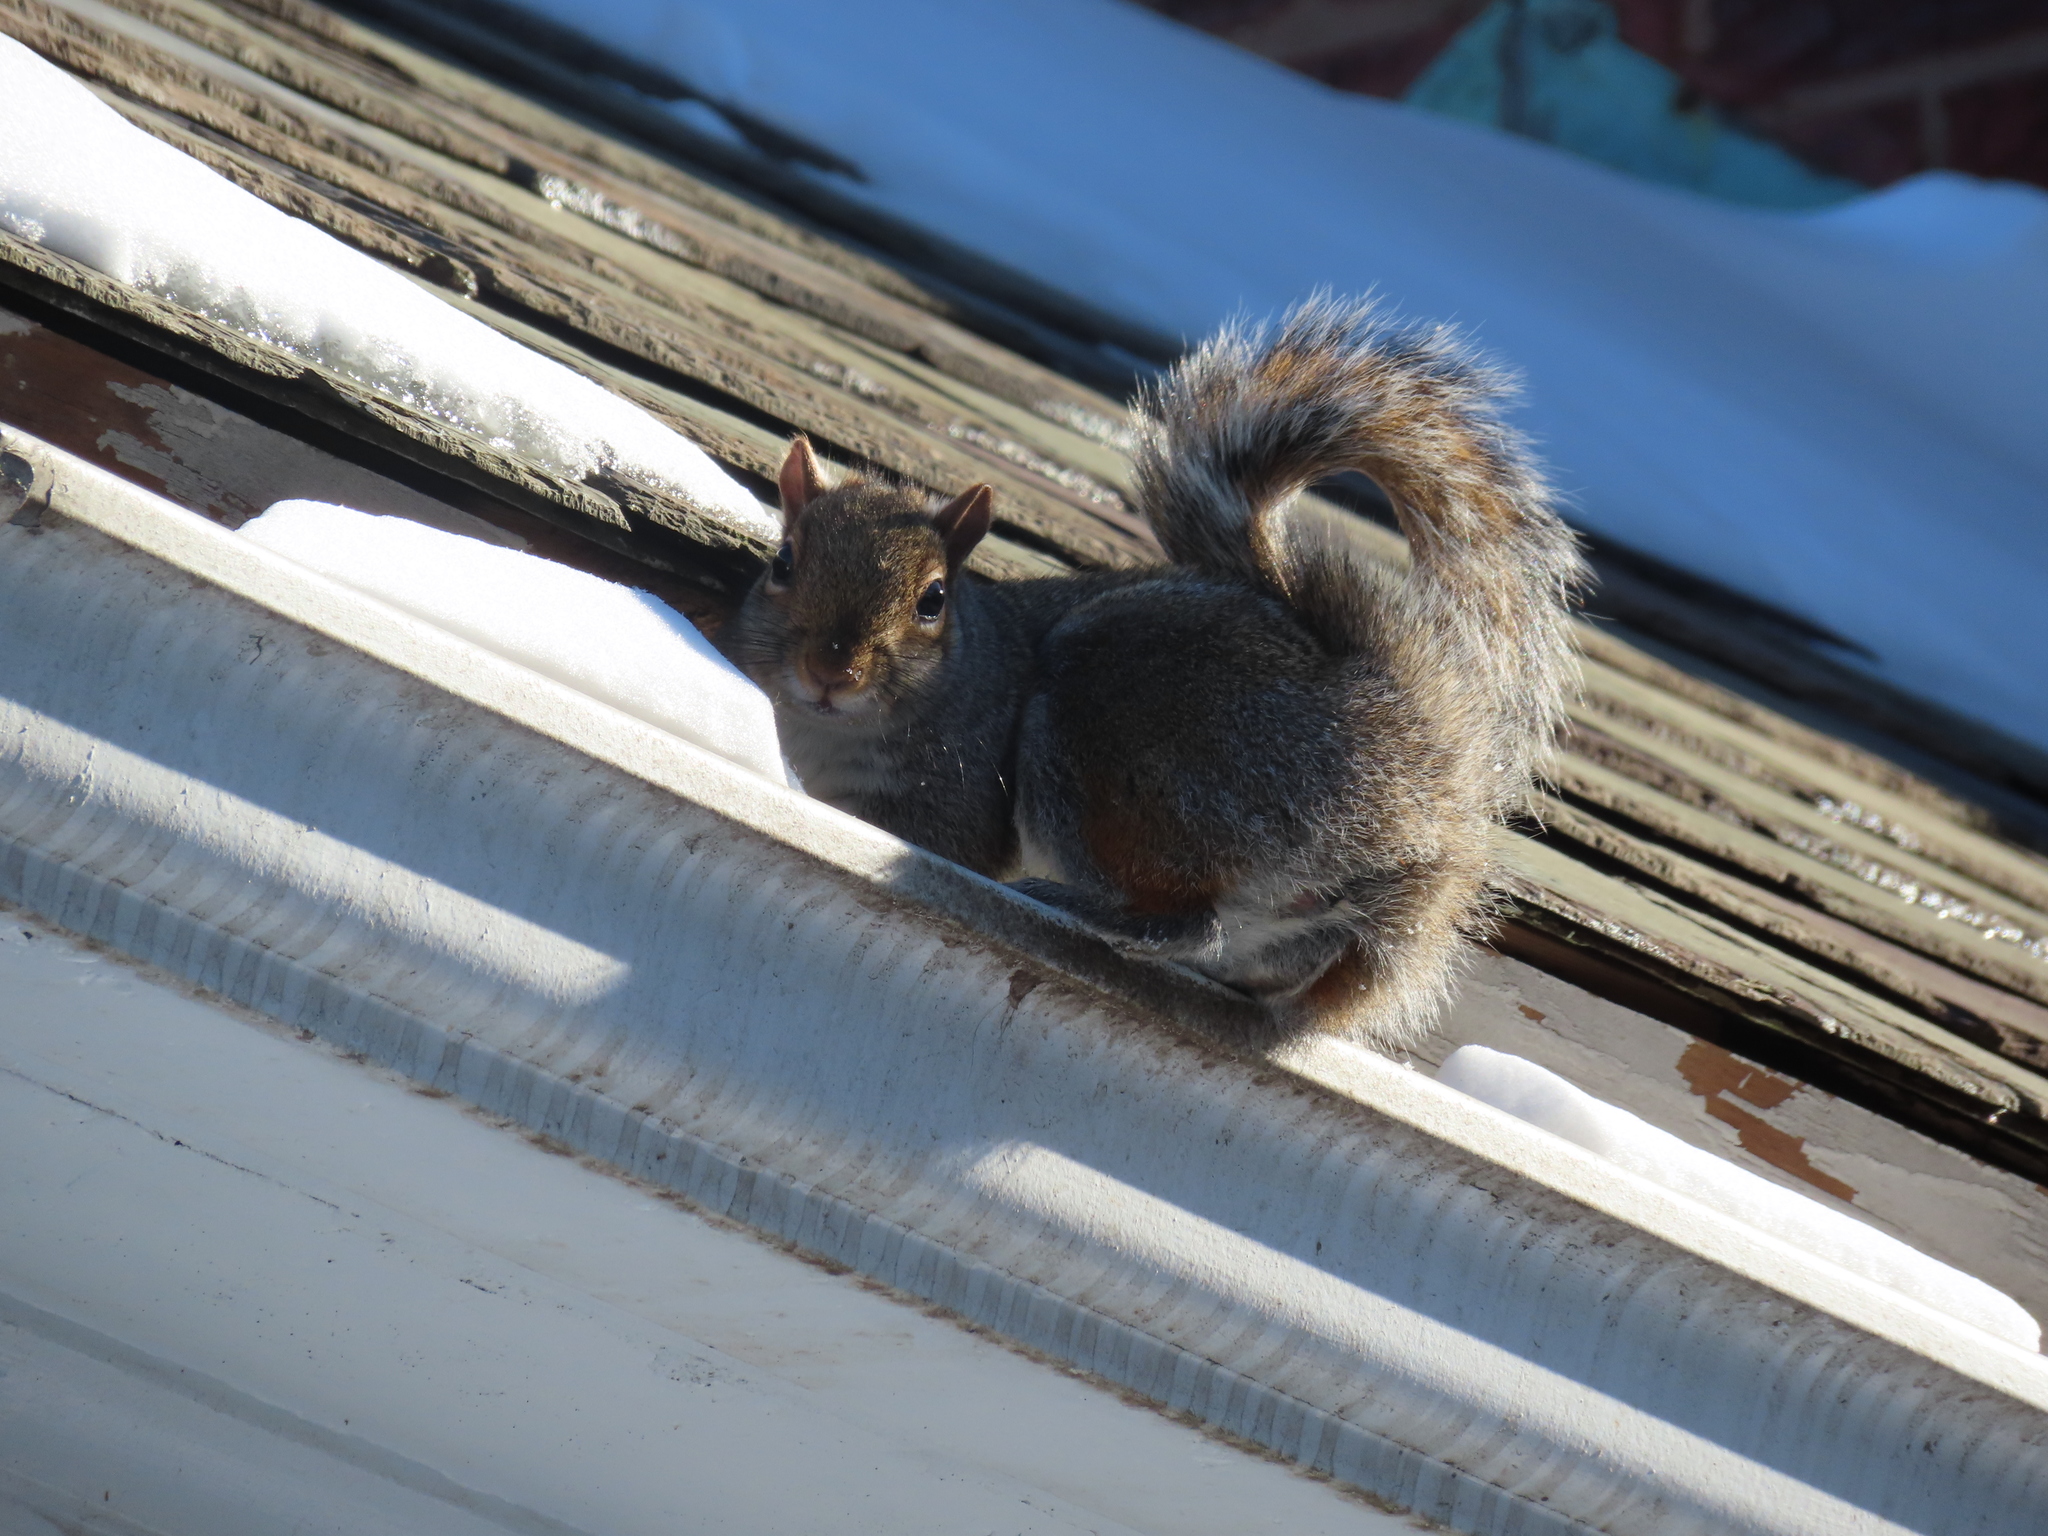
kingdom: Animalia
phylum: Chordata
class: Mammalia
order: Rodentia
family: Sciuridae
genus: Sciurus
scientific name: Sciurus carolinensis
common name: Eastern gray squirrel
